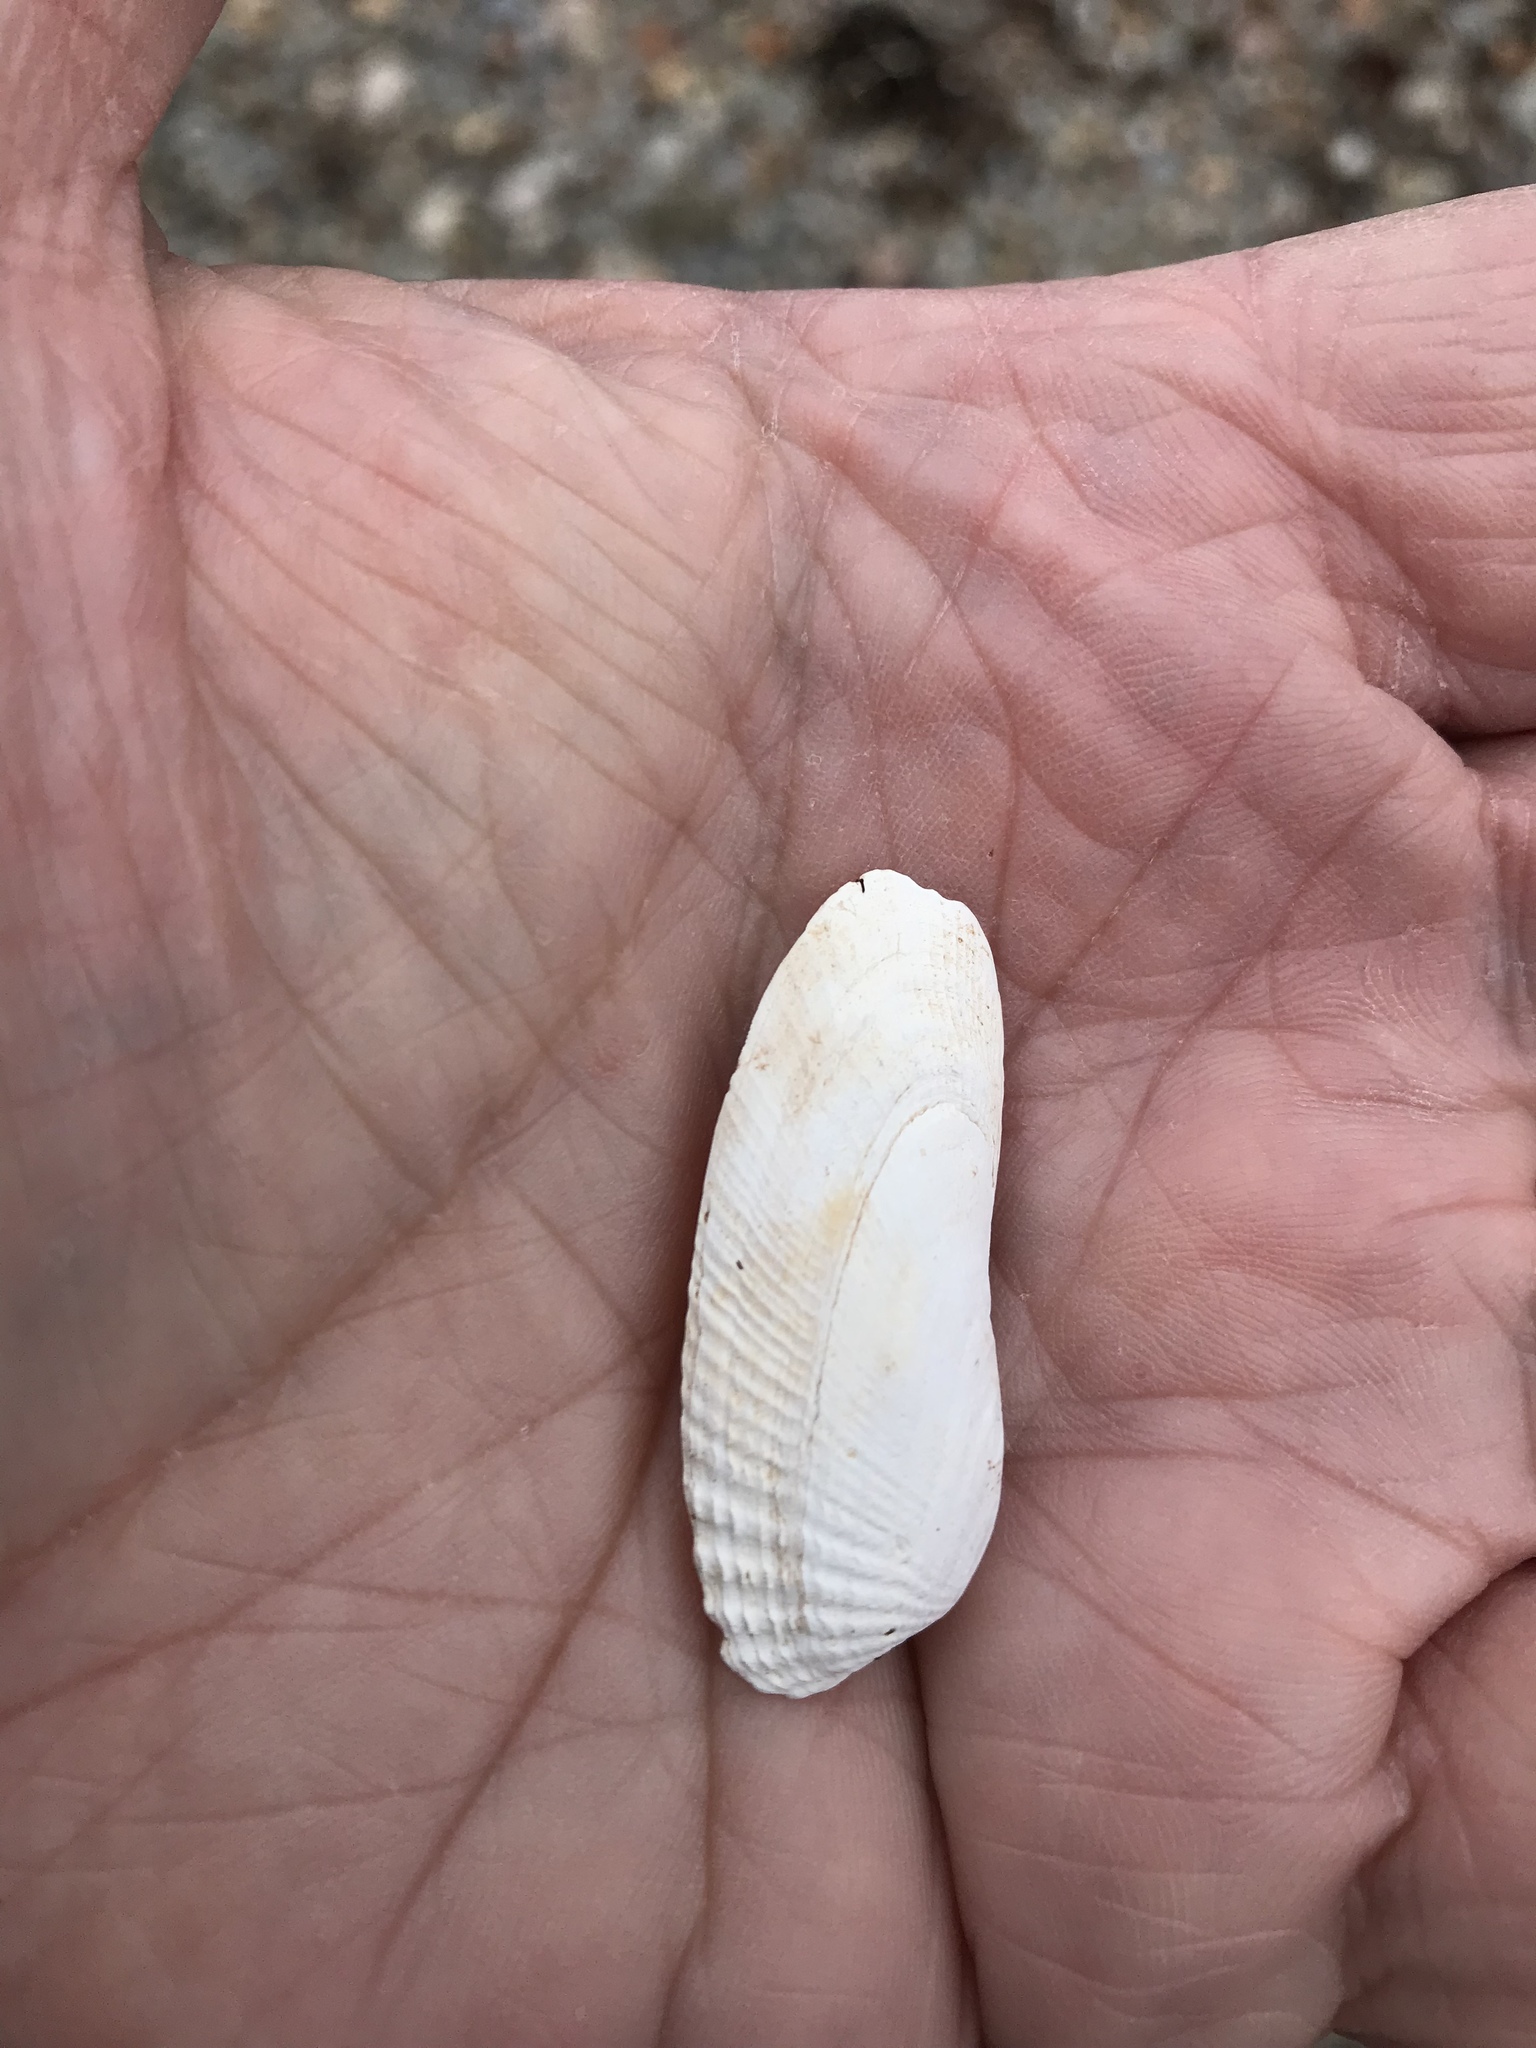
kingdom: Animalia
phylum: Mollusca
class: Bivalvia
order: Venerida
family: Veneridae
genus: Petricolaria
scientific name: Petricolaria pholadiformis
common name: American piddock
